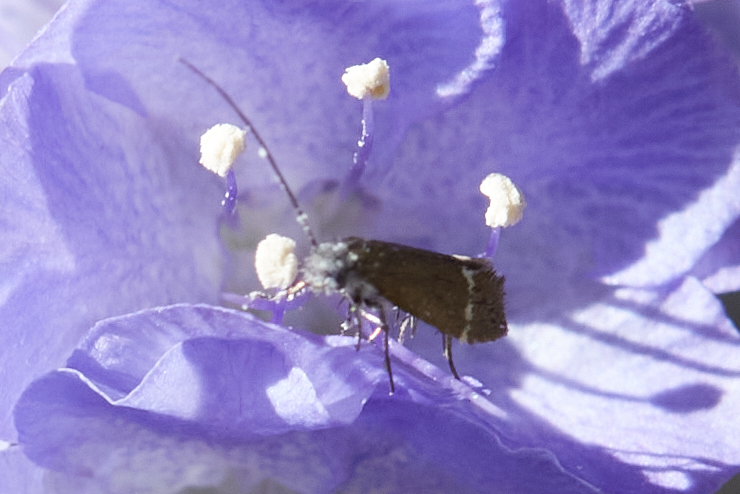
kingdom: Animalia
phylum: Arthropoda
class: Insecta
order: Lepidoptera
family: Adelidae
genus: Cauchas
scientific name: Cauchas
